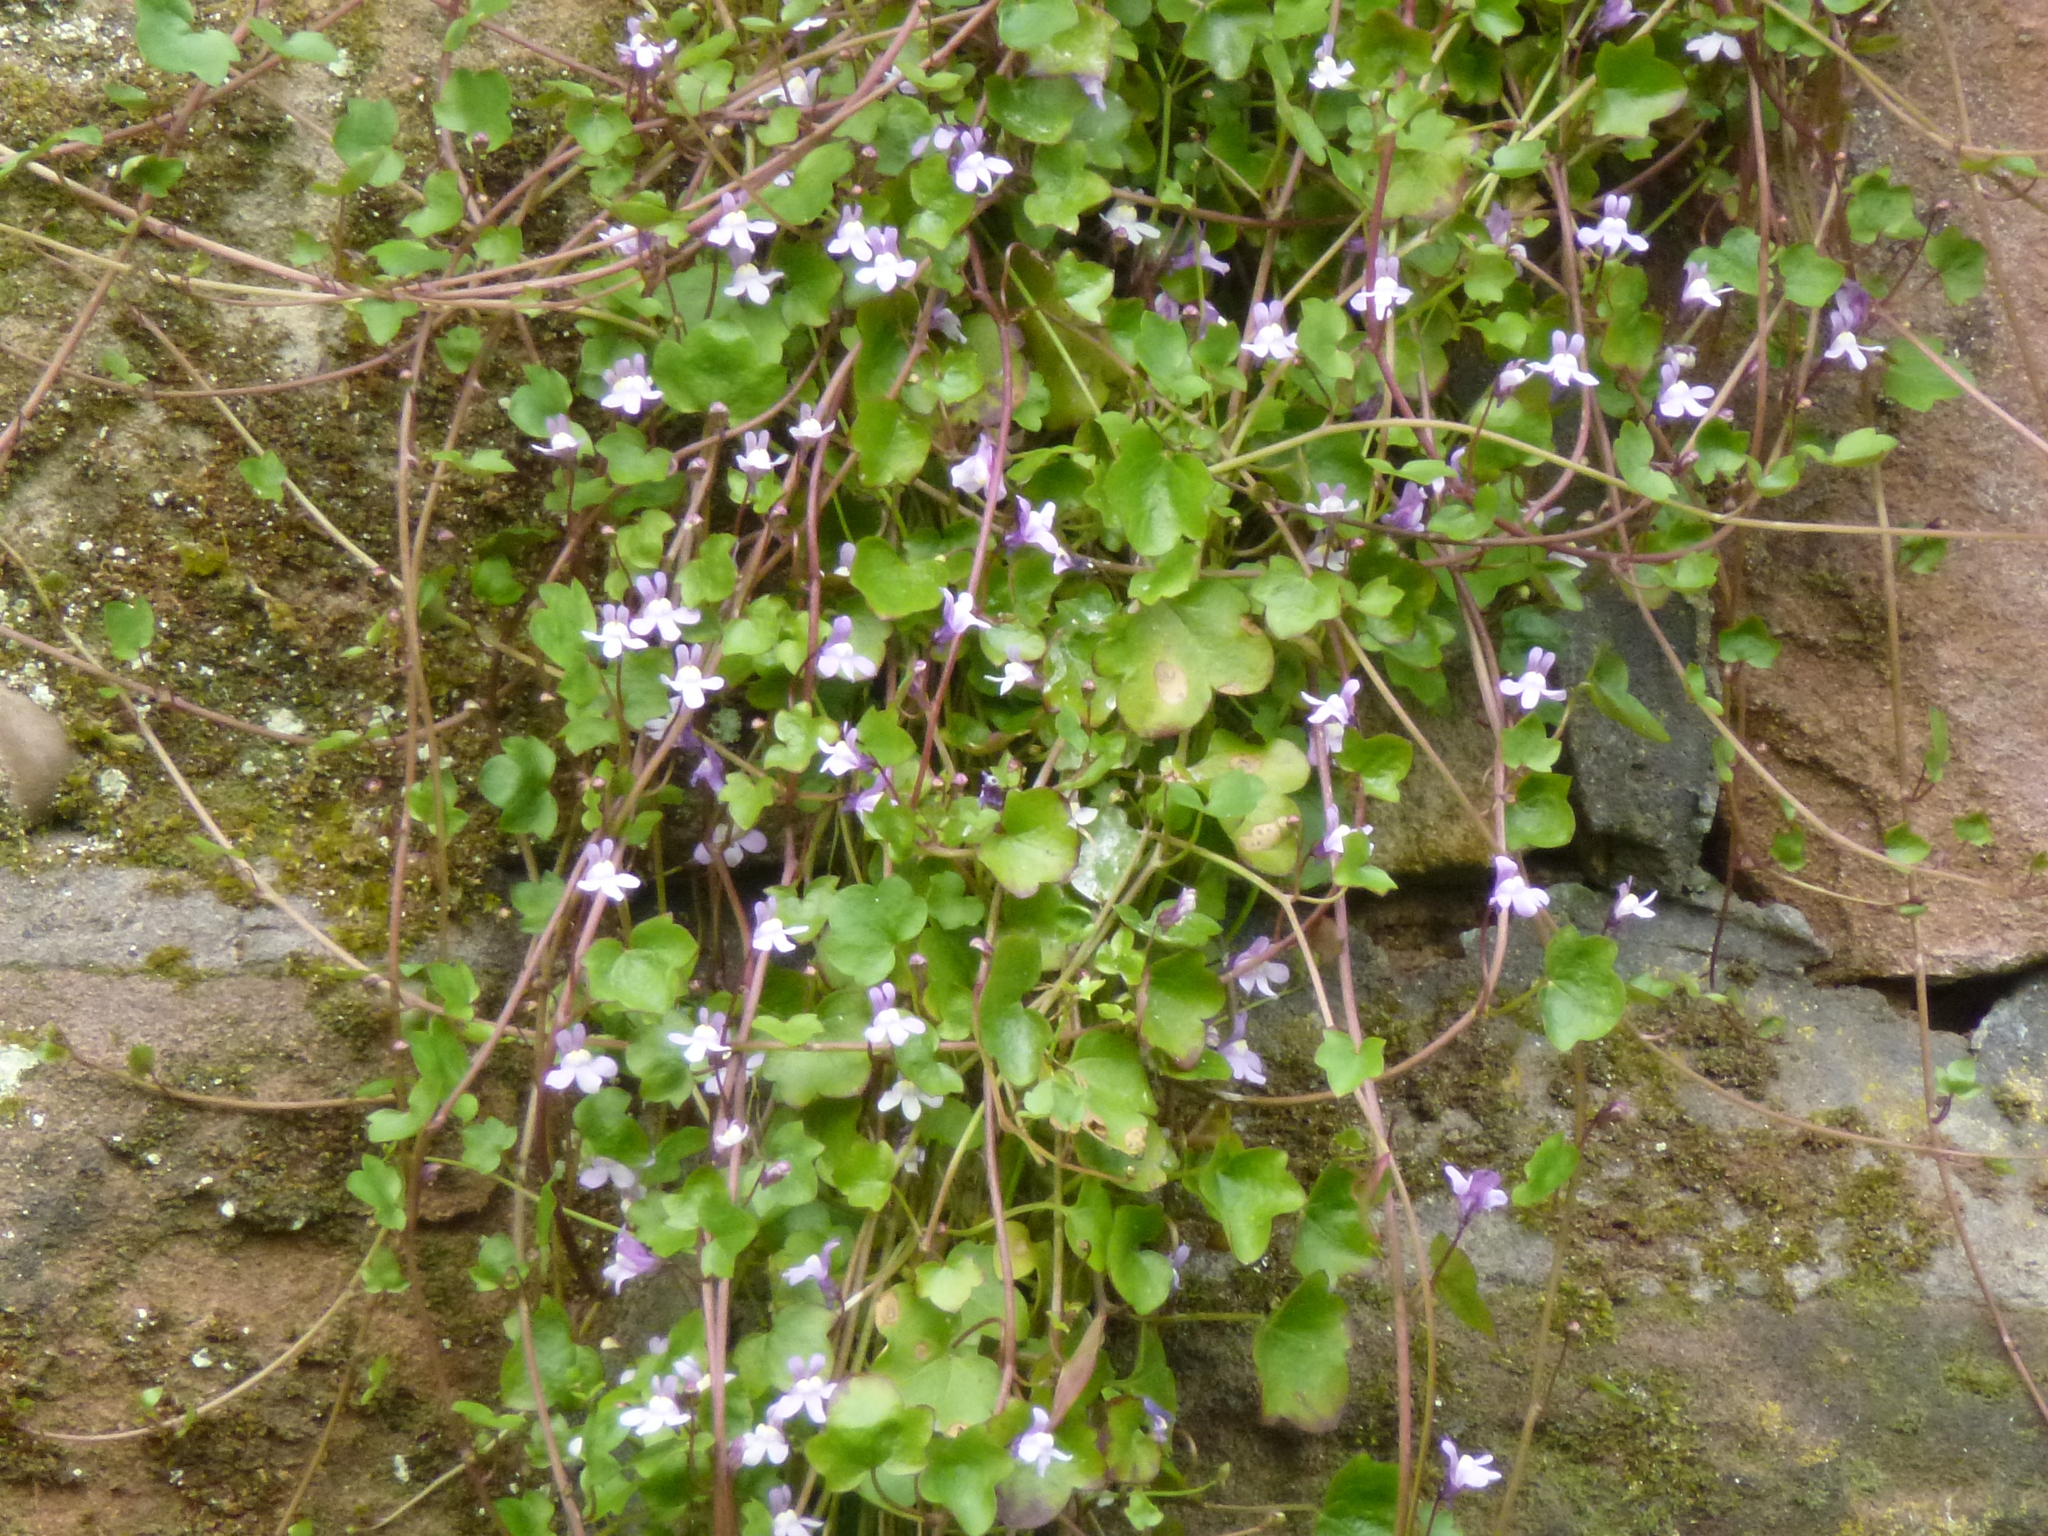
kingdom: Plantae
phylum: Tracheophyta
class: Magnoliopsida
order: Lamiales
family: Plantaginaceae
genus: Cymbalaria
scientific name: Cymbalaria muralis
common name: Ivy-leaved toadflax
